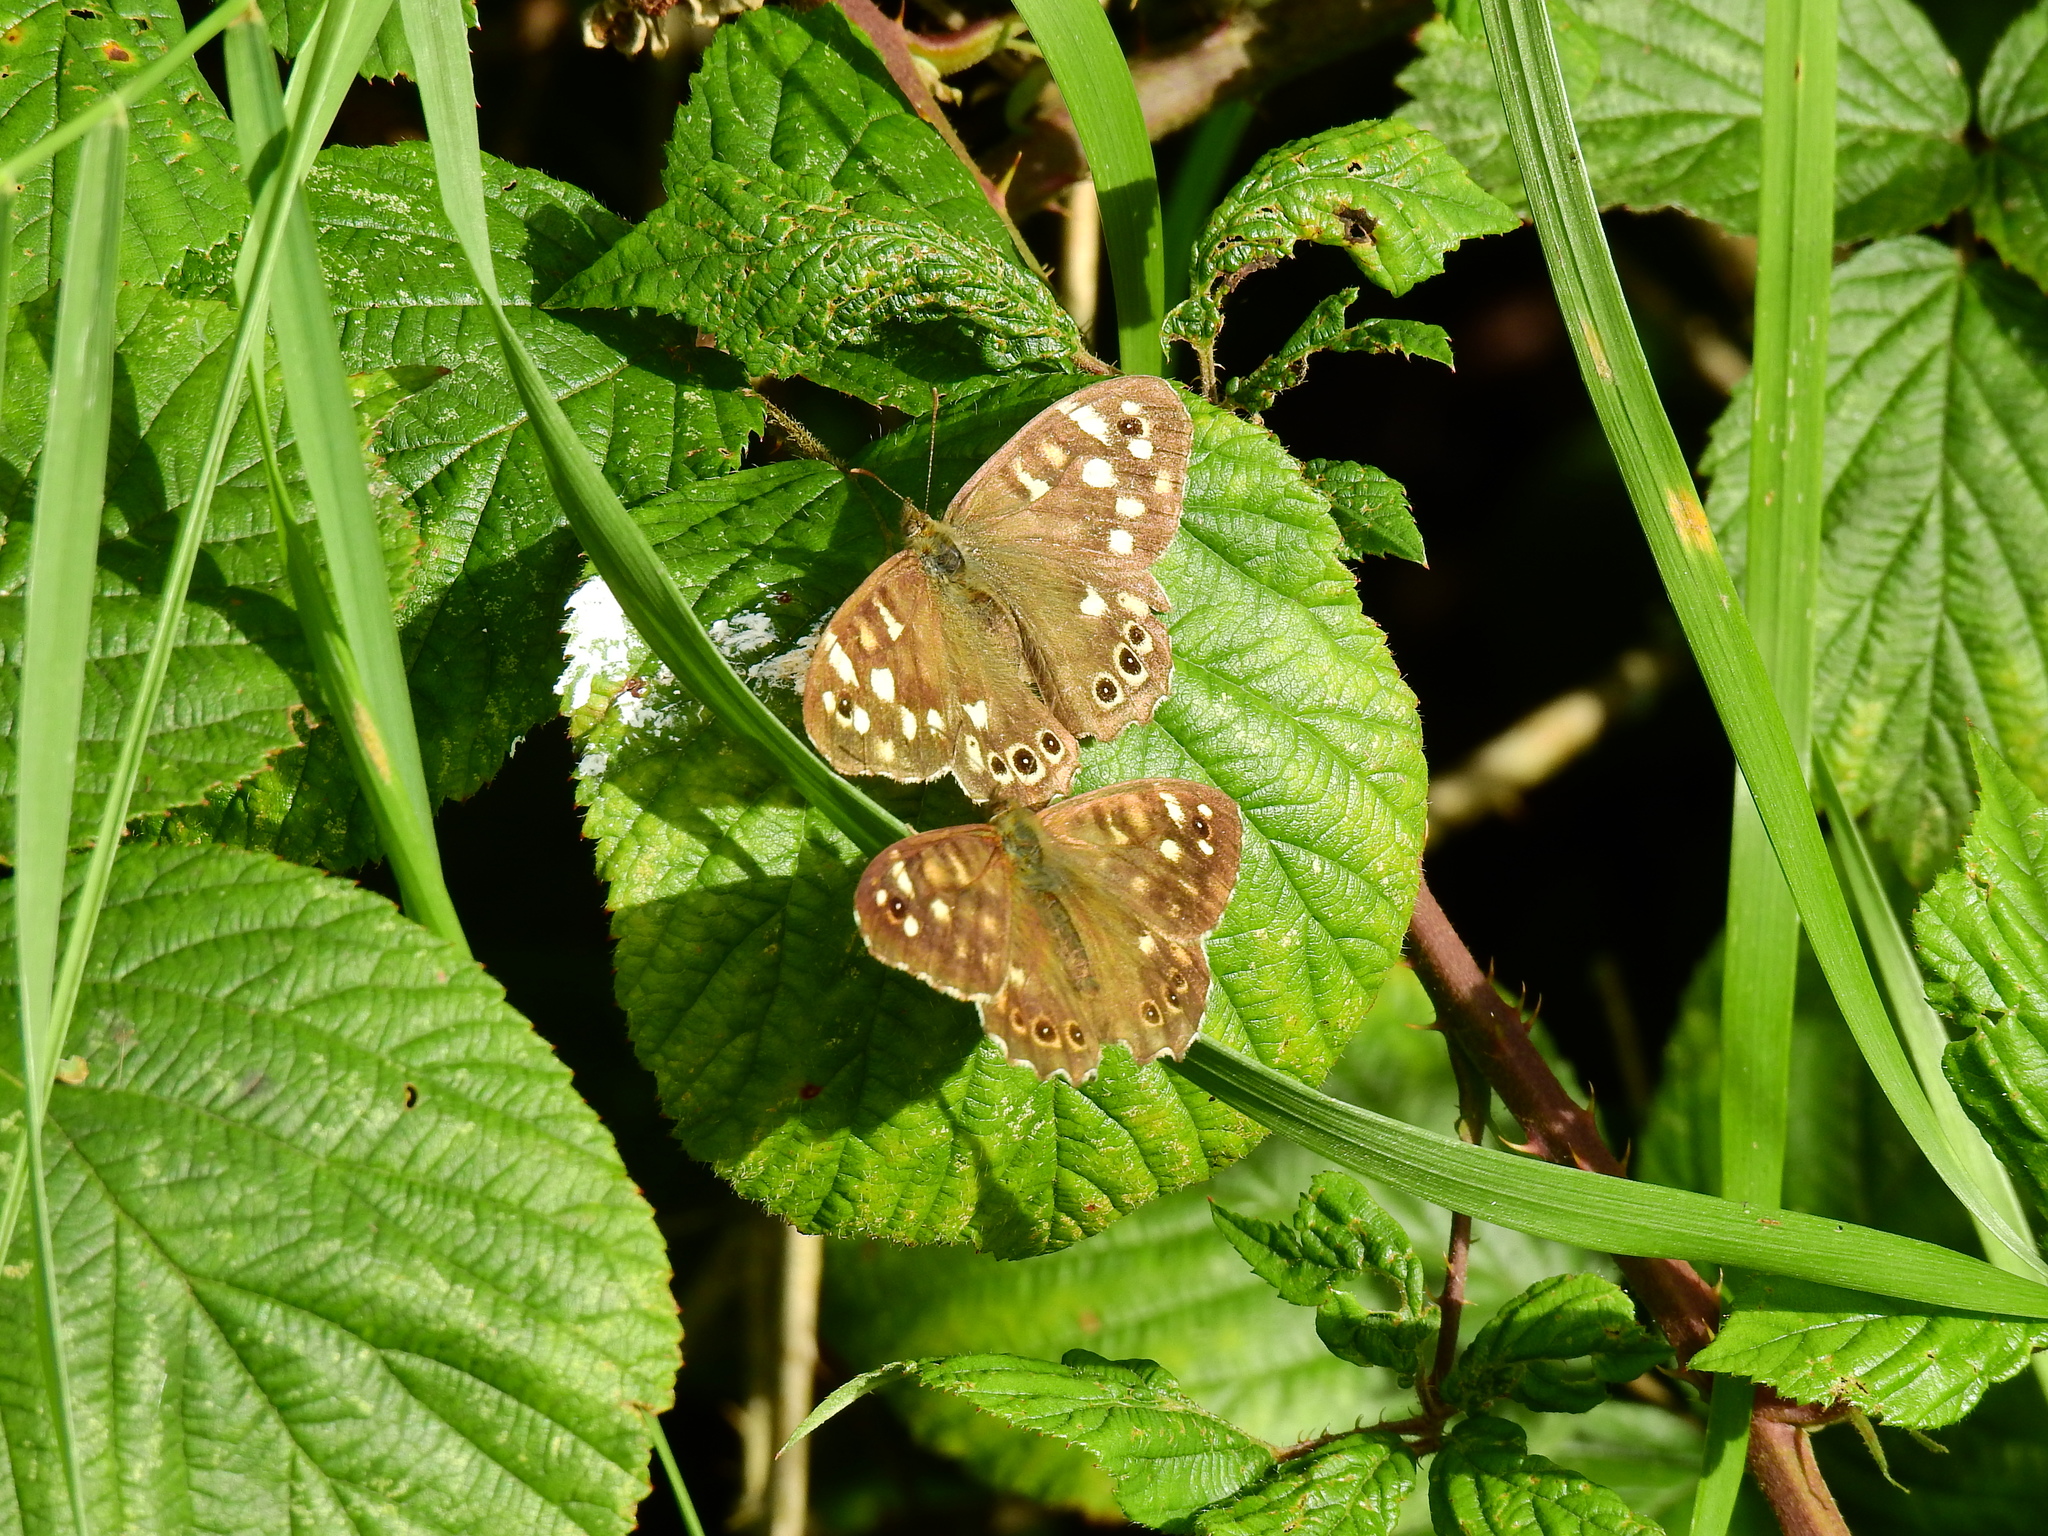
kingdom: Animalia
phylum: Arthropoda
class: Insecta
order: Lepidoptera
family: Nymphalidae
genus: Pararge
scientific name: Pararge aegeria
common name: Speckled wood
